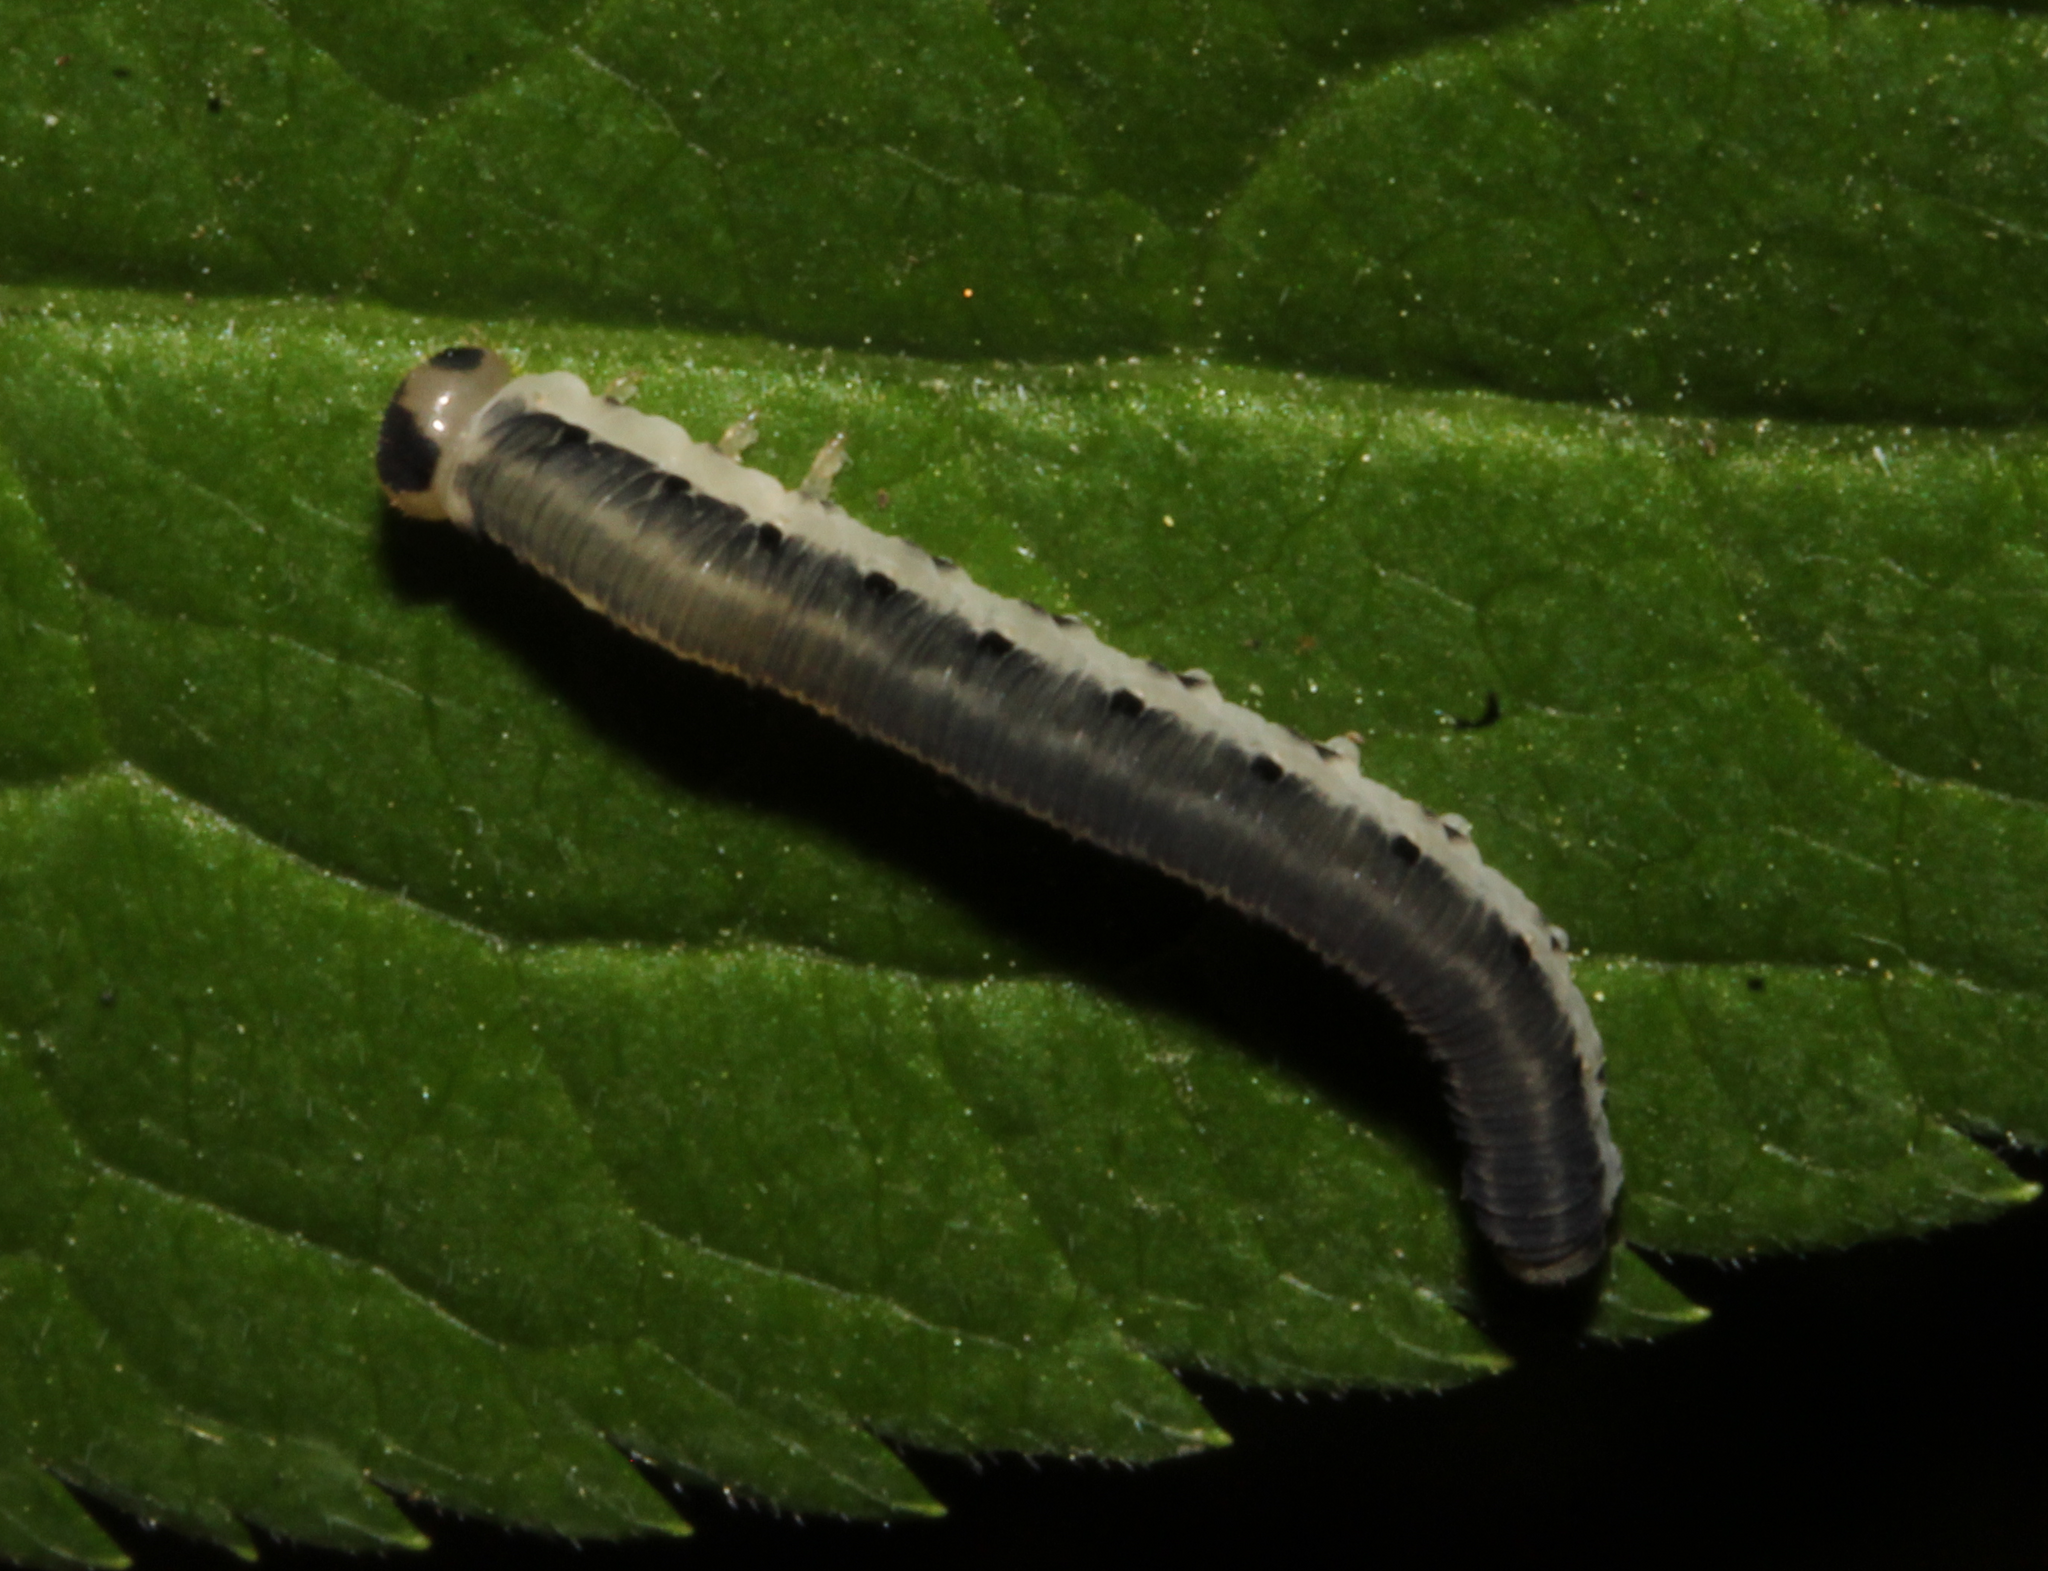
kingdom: Animalia
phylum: Arthropoda
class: Insecta
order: Hymenoptera
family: Tenthredinidae
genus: Macrophya
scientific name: Macrophya alboannulata
